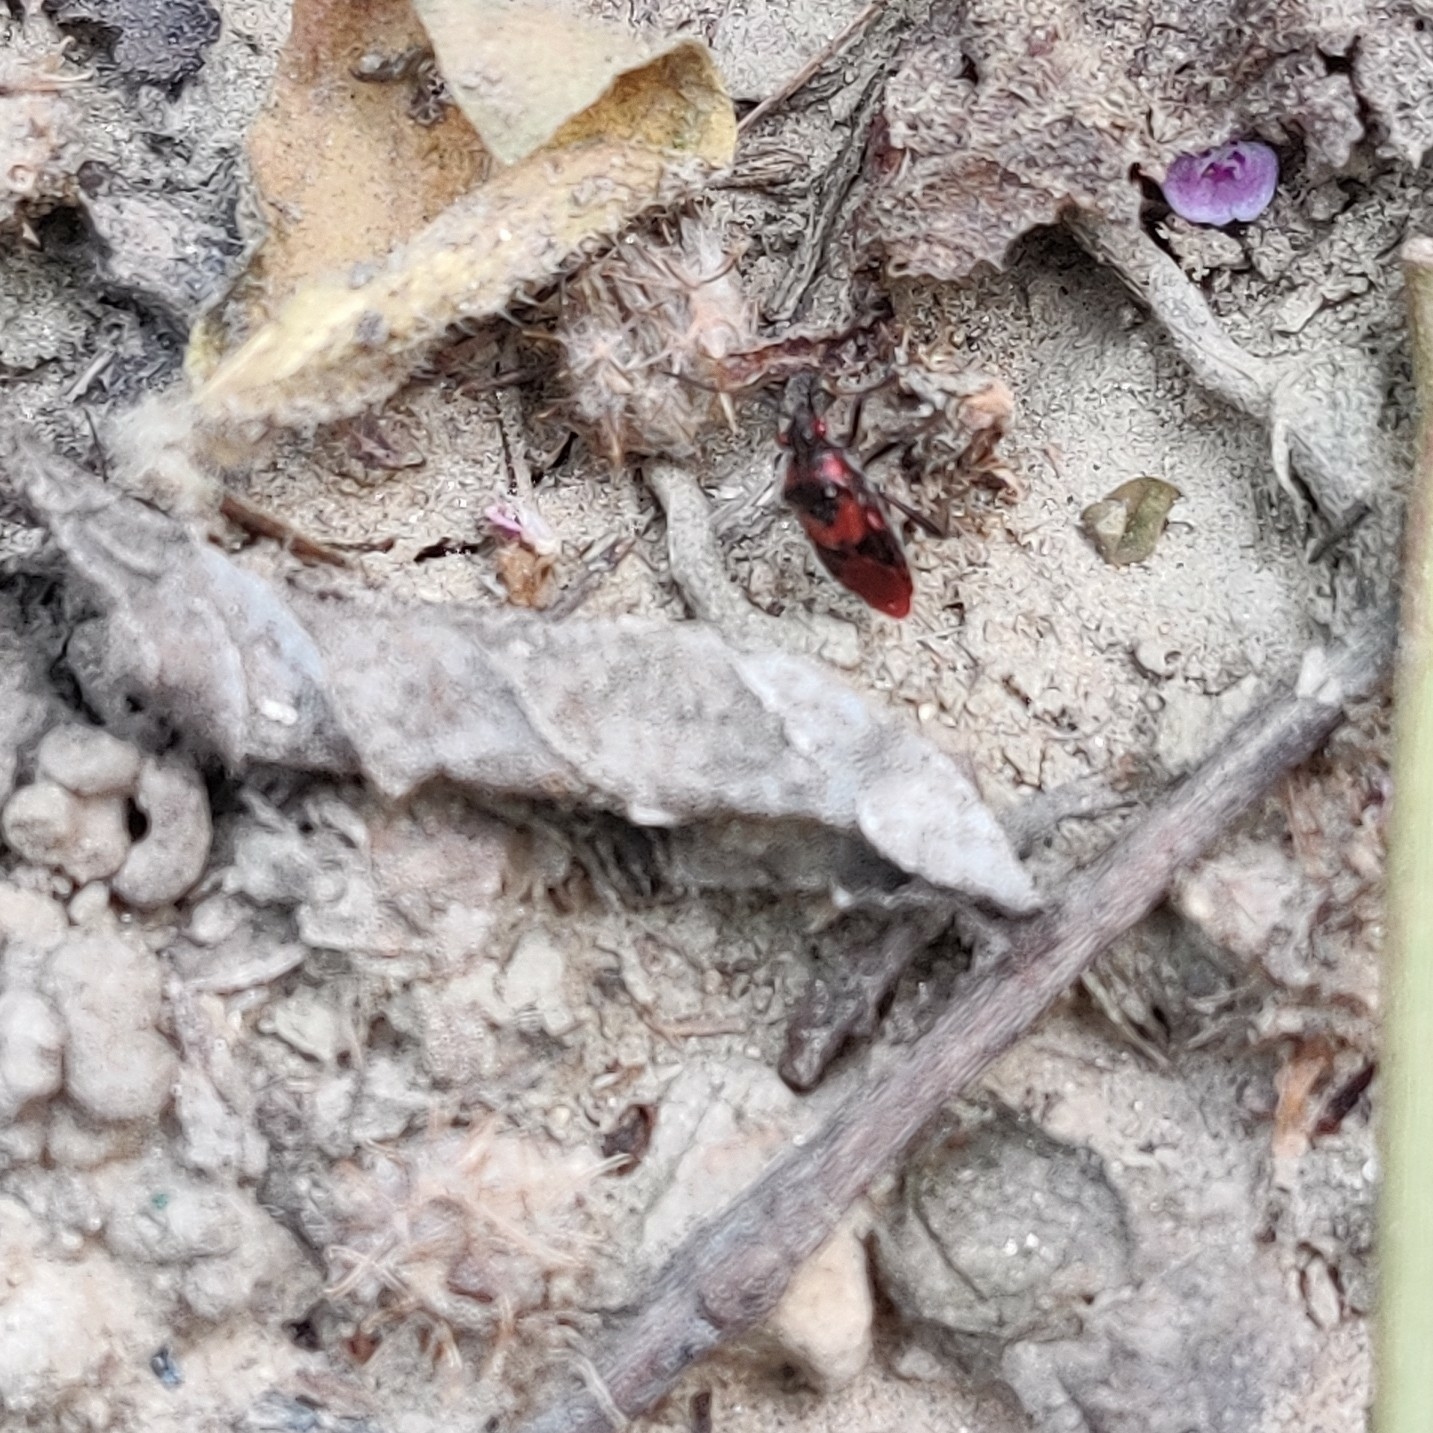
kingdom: Animalia
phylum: Arthropoda
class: Insecta
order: Hemiptera
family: Rhopalidae
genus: Liorhyssus
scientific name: Liorhyssus rubicundus
